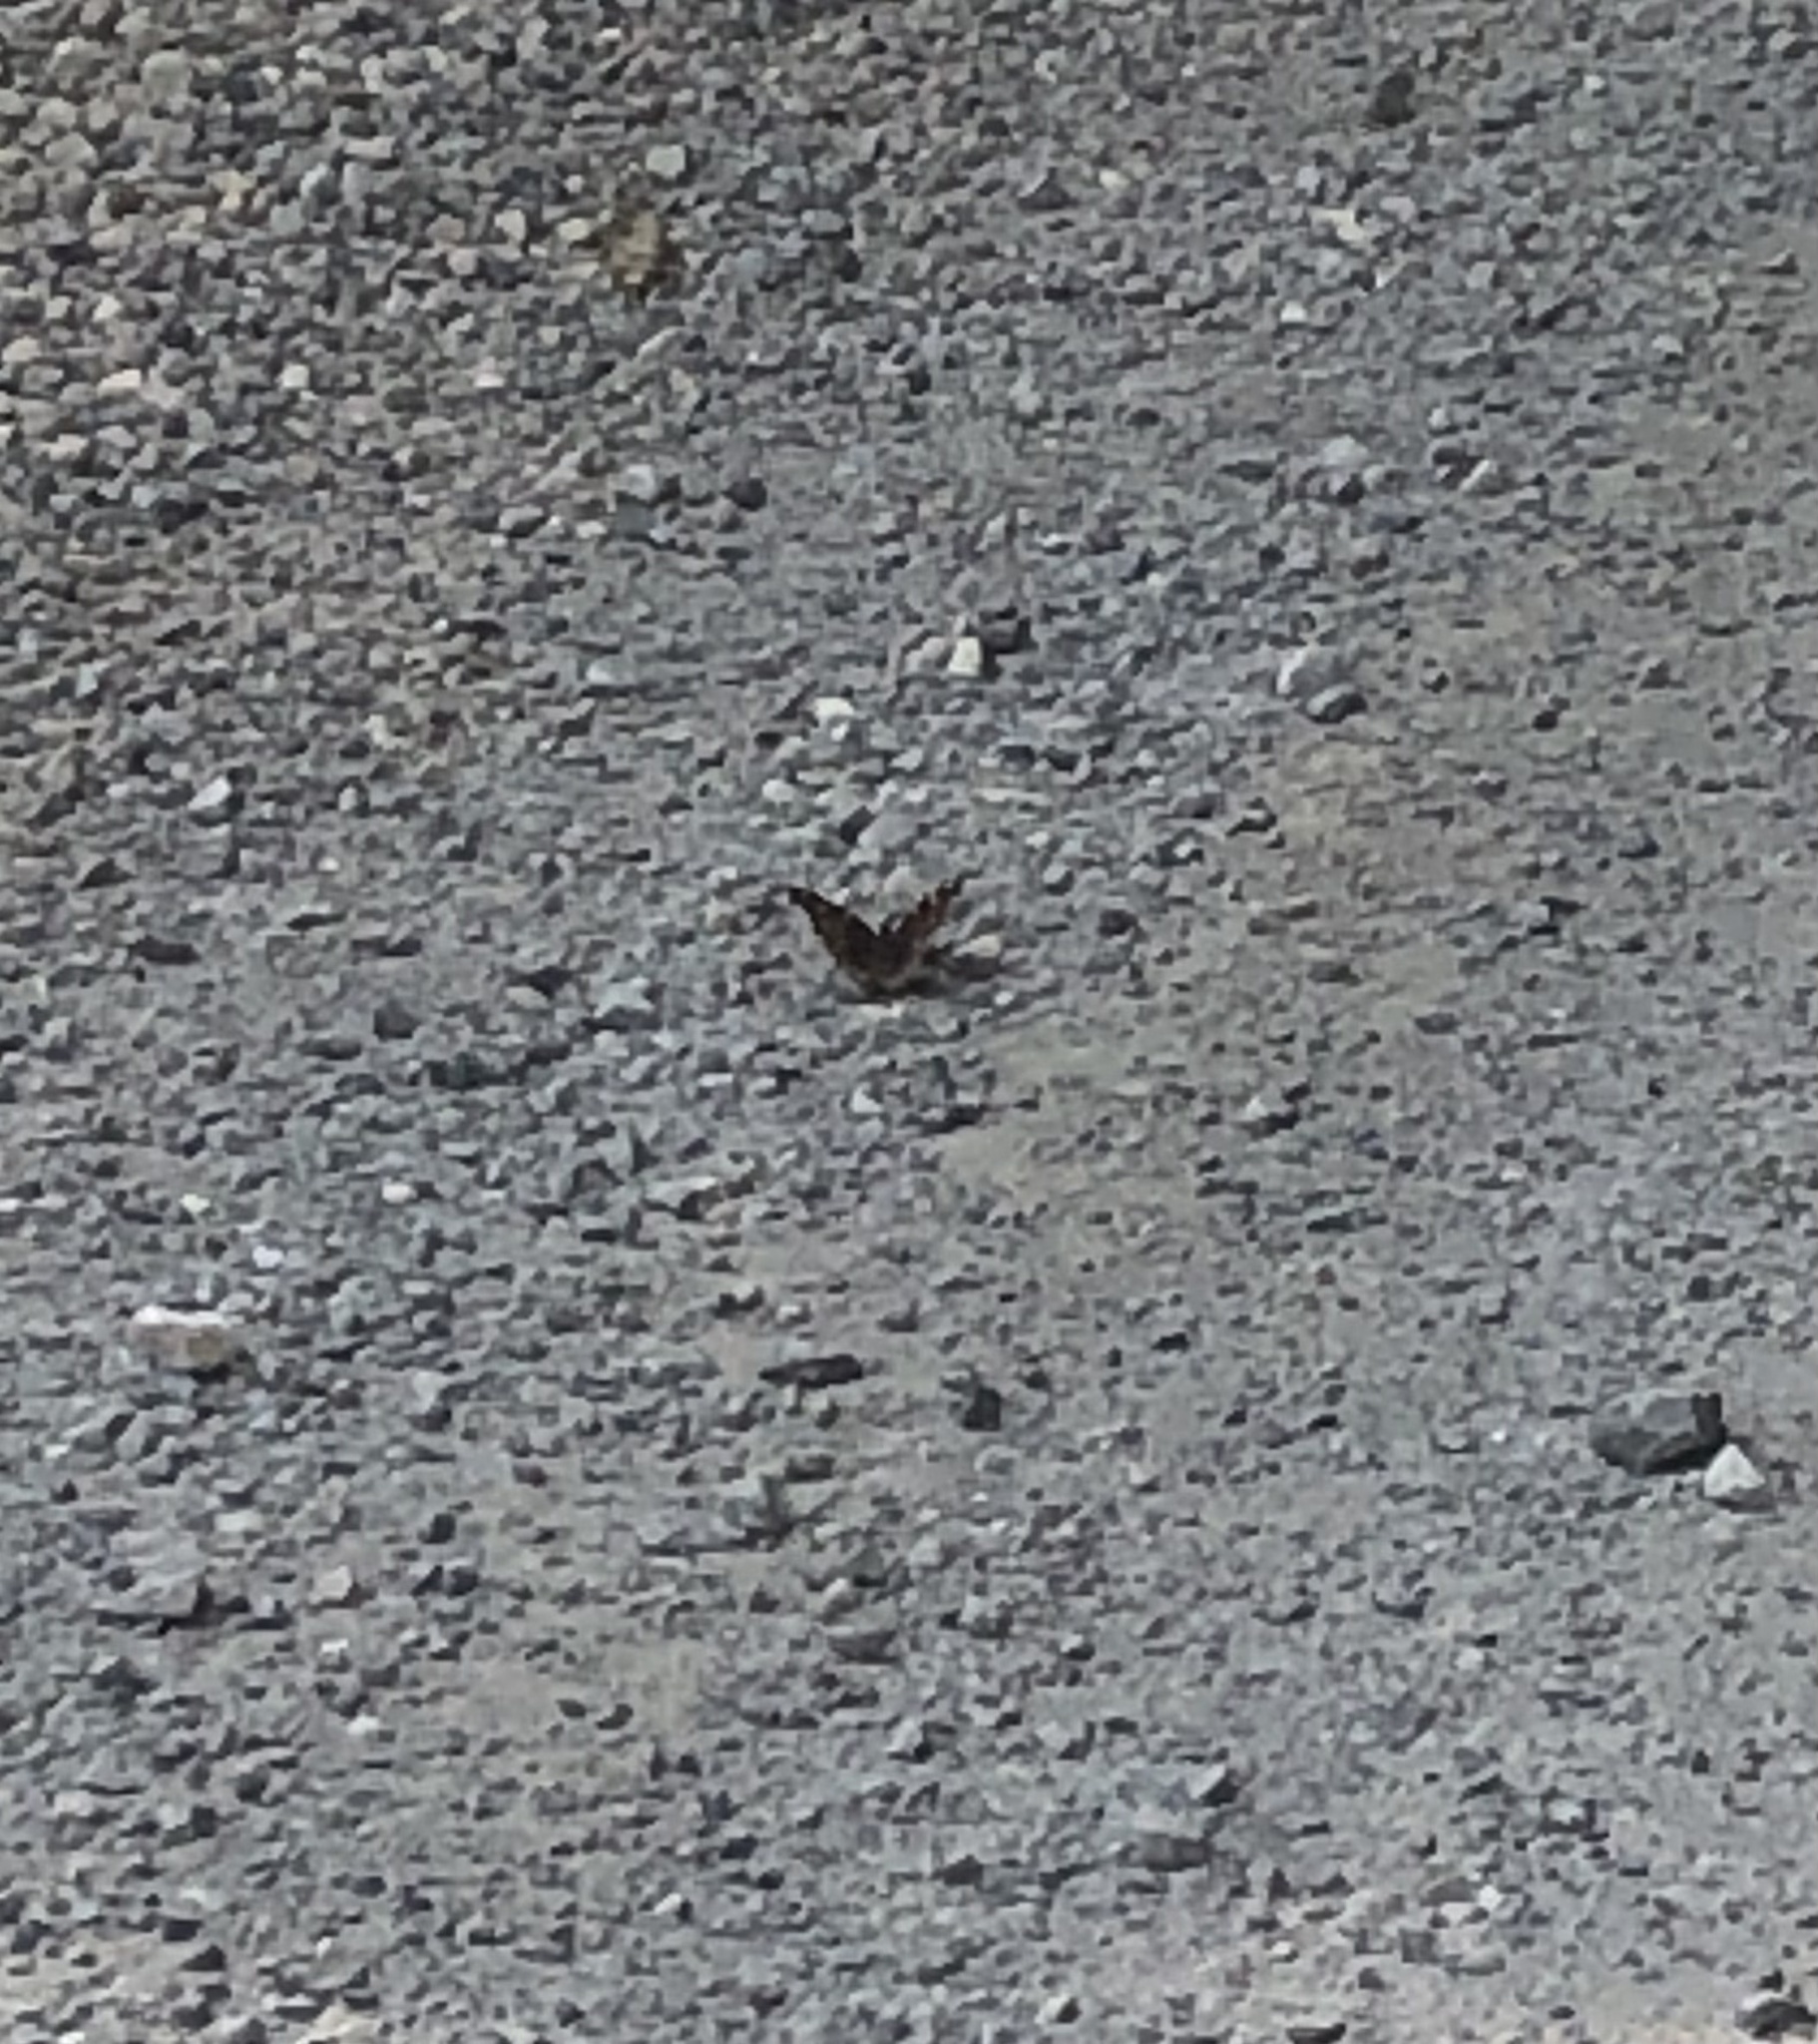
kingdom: Animalia
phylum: Arthropoda
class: Insecta
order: Lepidoptera
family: Nymphalidae
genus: Polygonia
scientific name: Polygonia vaualbum
